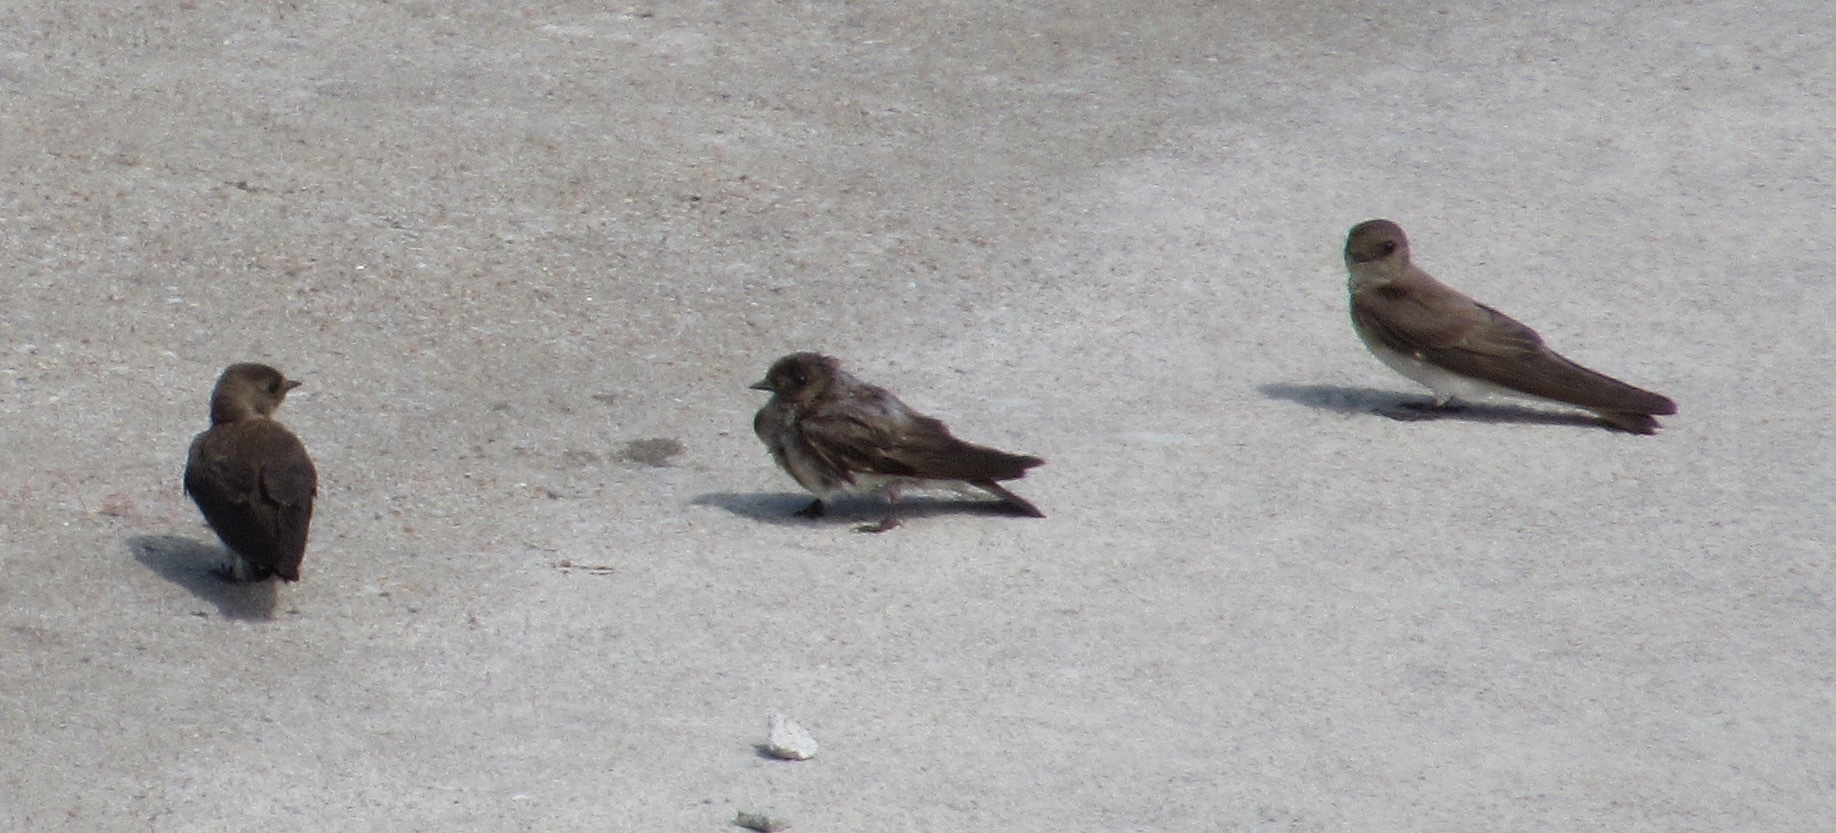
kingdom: Animalia
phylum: Chordata
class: Aves
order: Passeriformes
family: Hirundinidae
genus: Stelgidopteryx
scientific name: Stelgidopteryx serripennis
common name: Northern rough-winged swallow
